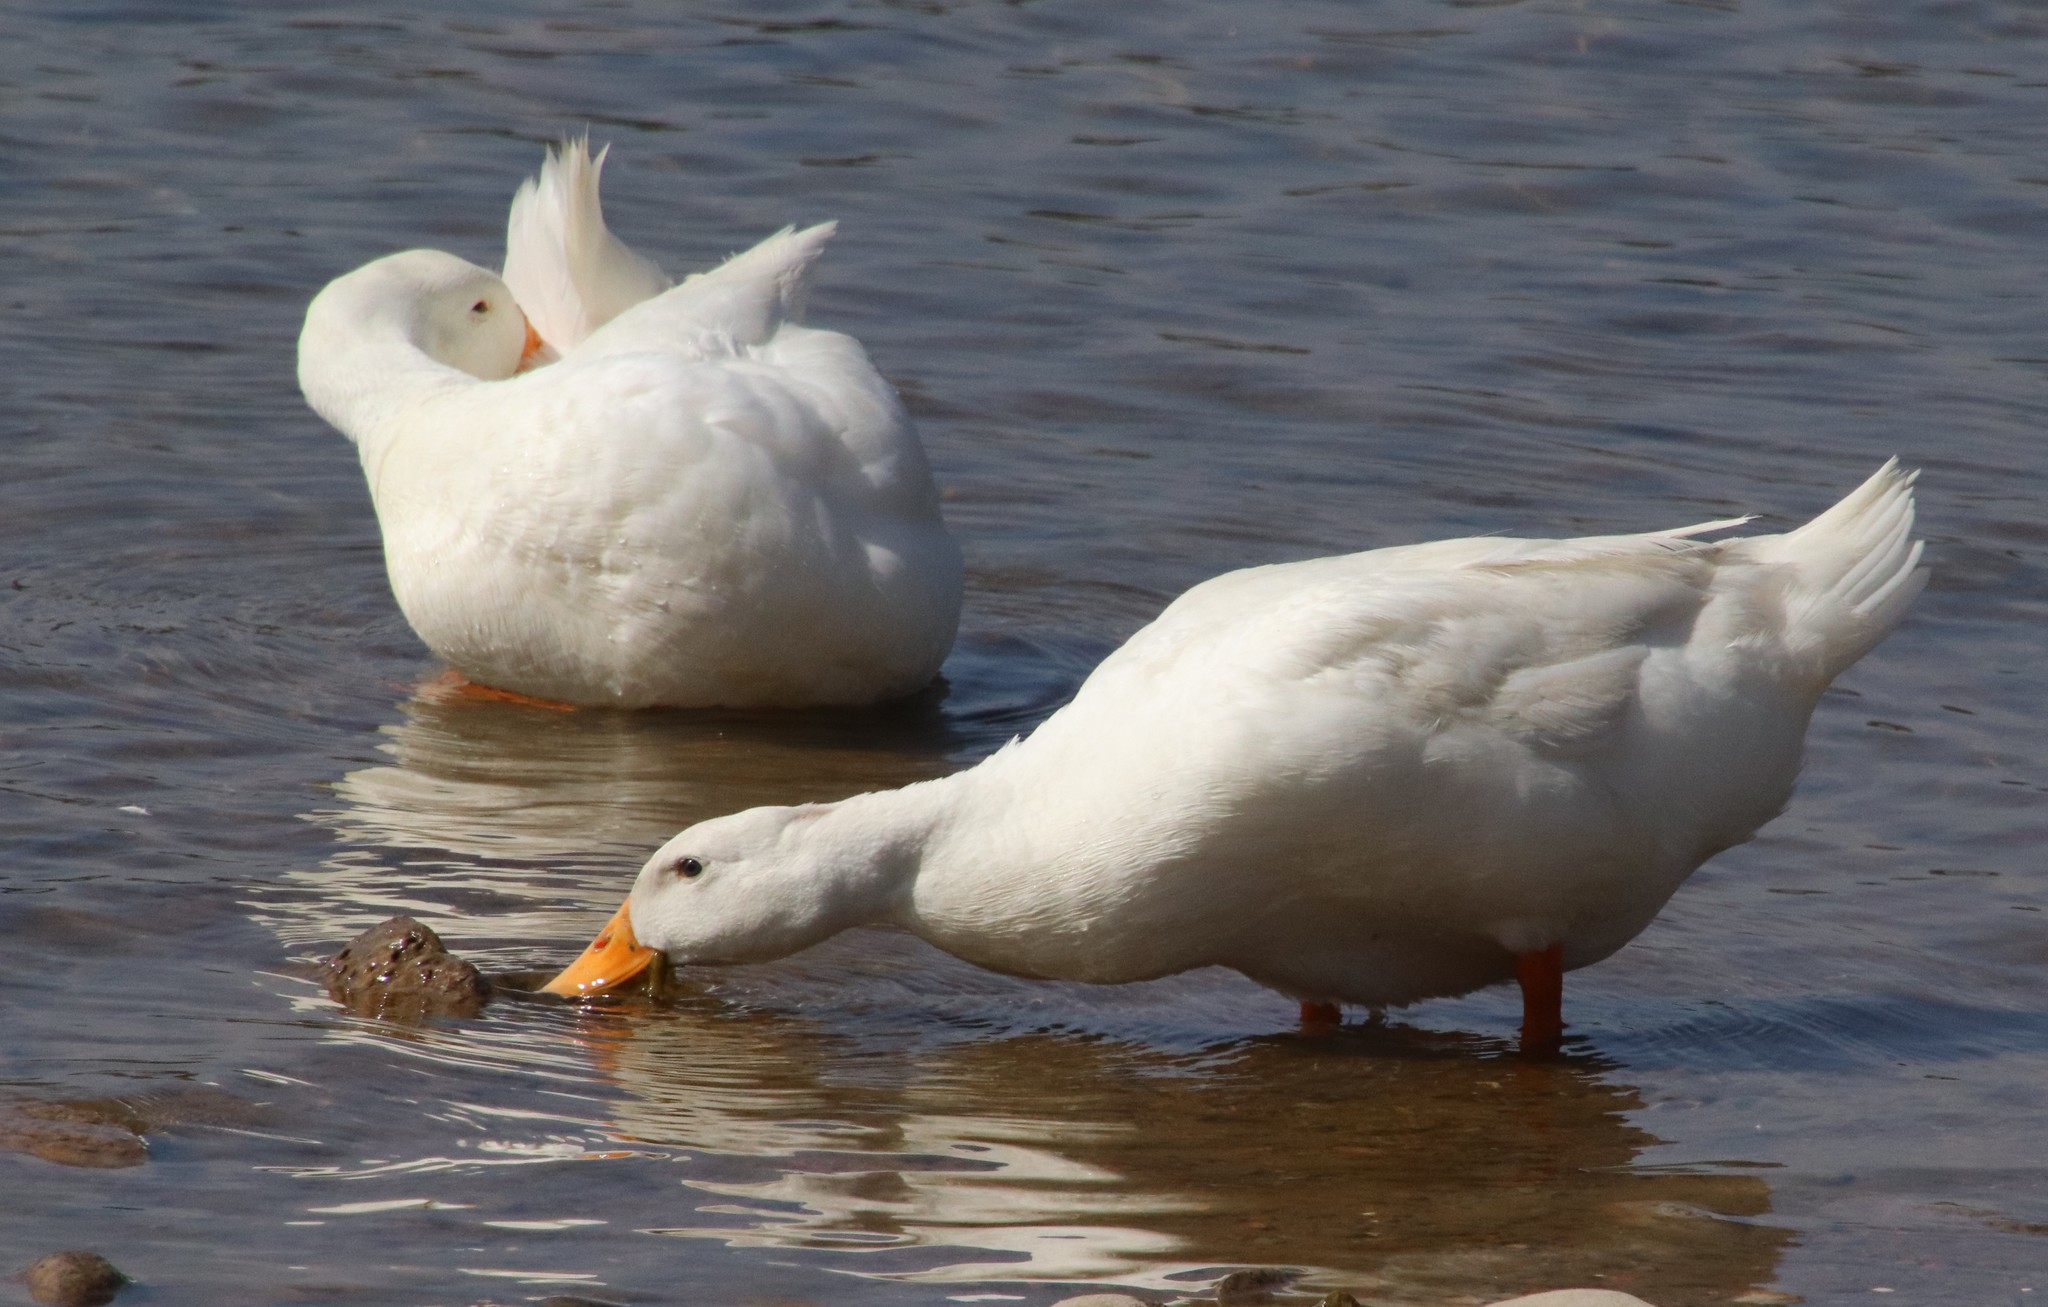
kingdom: Animalia
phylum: Chordata
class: Aves
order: Anseriformes
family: Anatidae
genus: Anas
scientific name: Anas platyrhynchos
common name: Mallard
